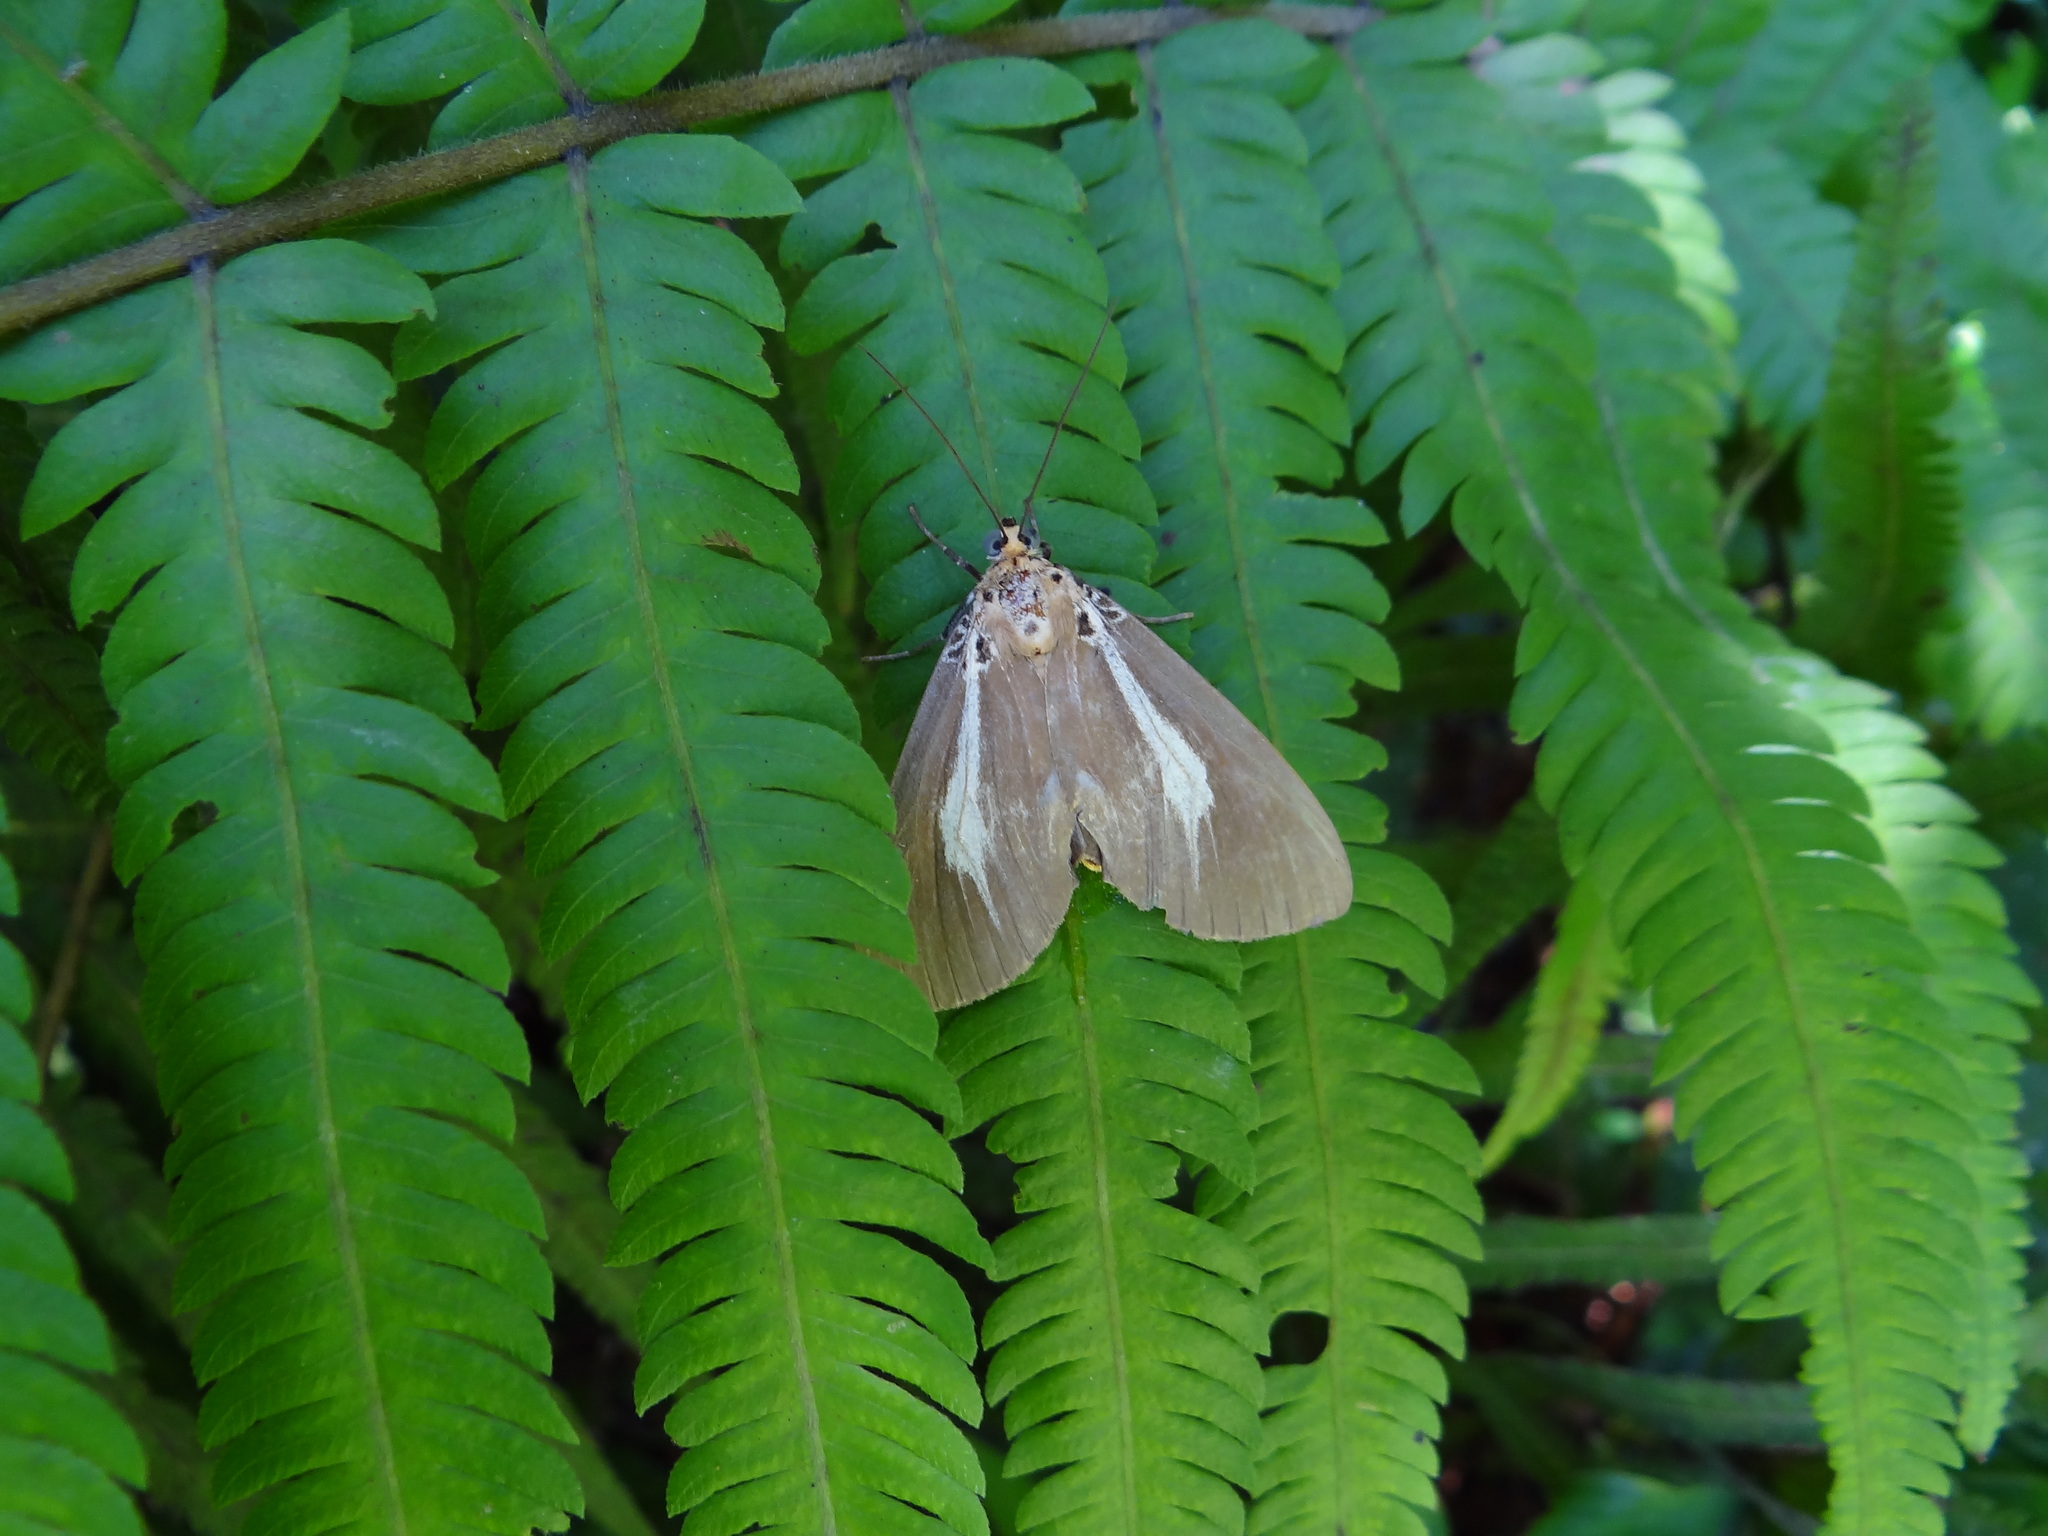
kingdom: Animalia
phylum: Arthropoda
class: Insecta
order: Lepidoptera
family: Erebidae
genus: Asota
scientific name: Asota heliconia
